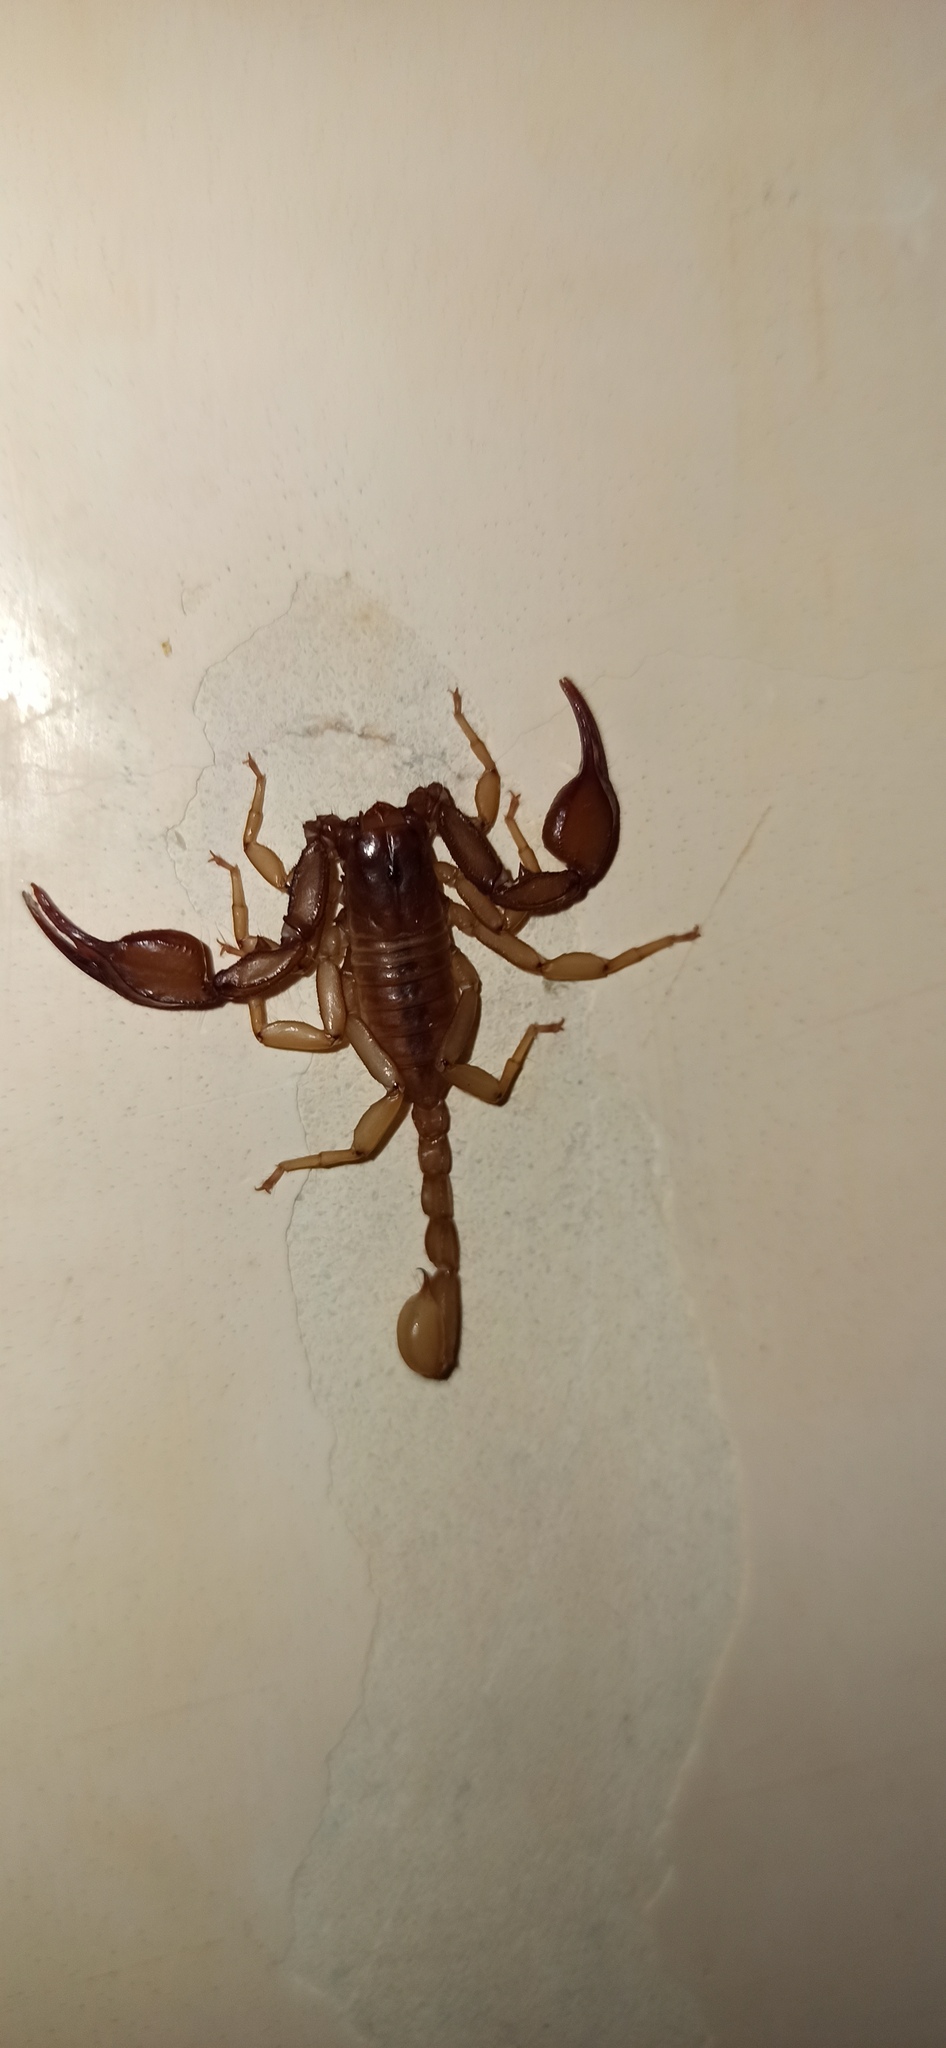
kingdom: Animalia
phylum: Arthropoda
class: Arachnida
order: Scorpiones
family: Euscorpiidae
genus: Euscorpius
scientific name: Euscorpius aquilejensis
